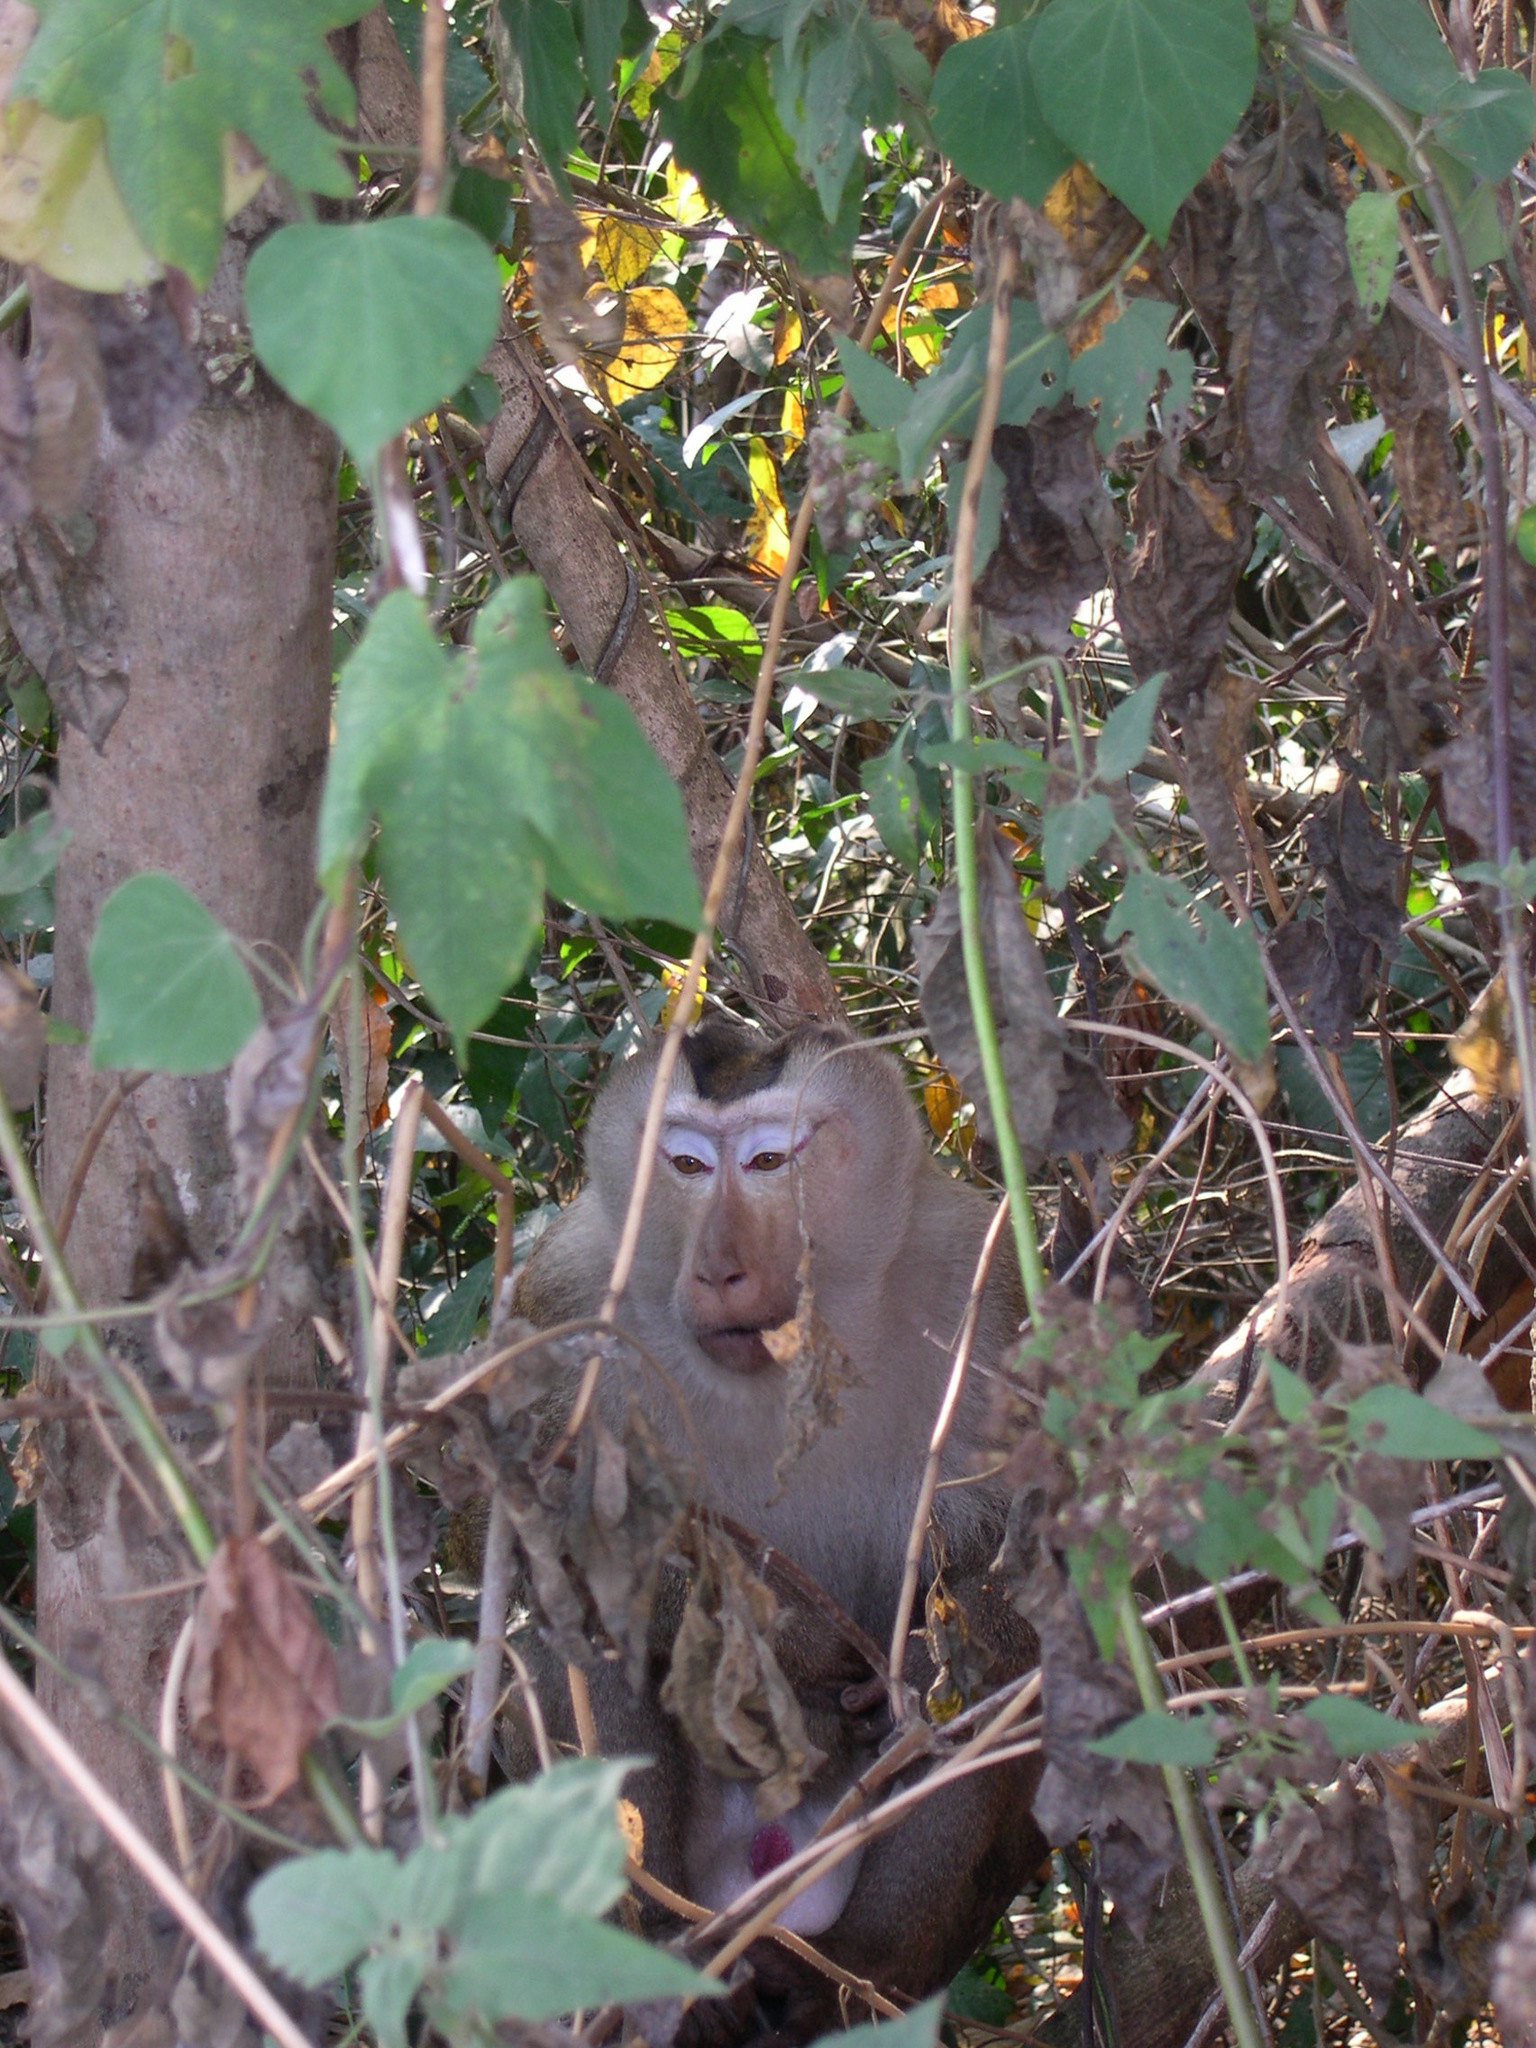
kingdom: Animalia
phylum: Chordata
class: Mammalia
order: Primates
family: Cercopithecidae
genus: Macaca
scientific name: Macaca leonina
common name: Northern pig-tailed macaque
